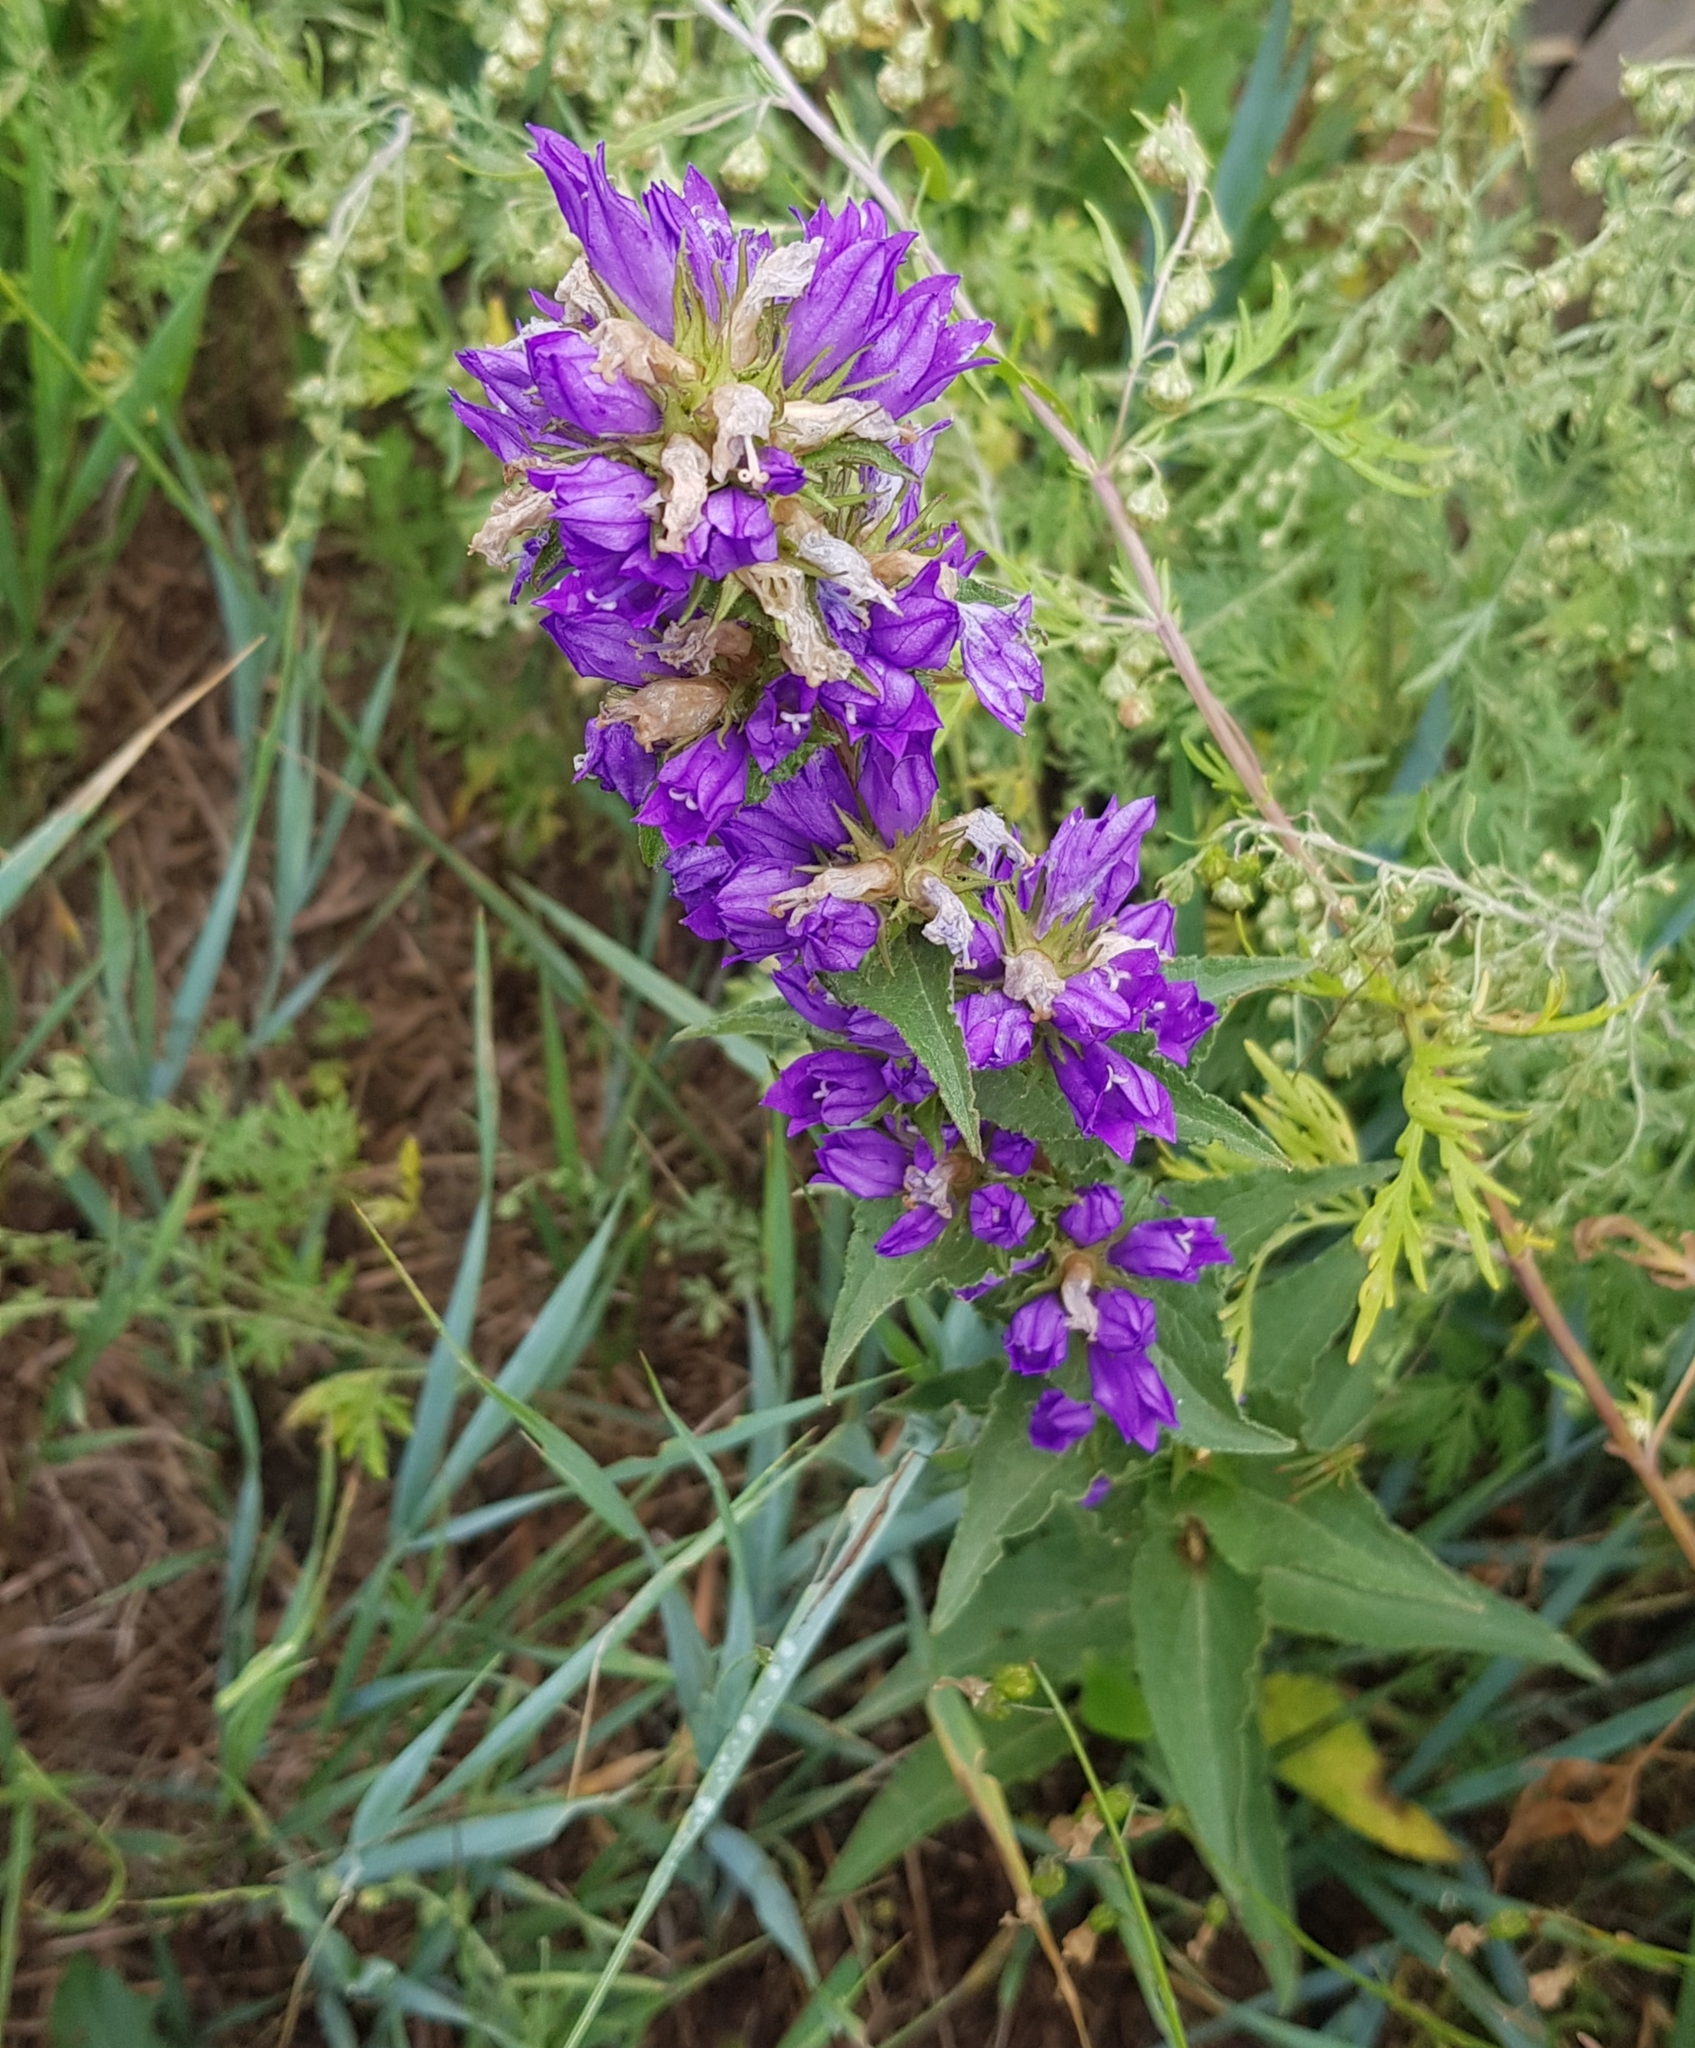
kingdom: Plantae
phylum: Tracheophyta
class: Magnoliopsida
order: Asterales
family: Campanulaceae
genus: Campanula
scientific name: Campanula glomerata
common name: Clustered bellflower
